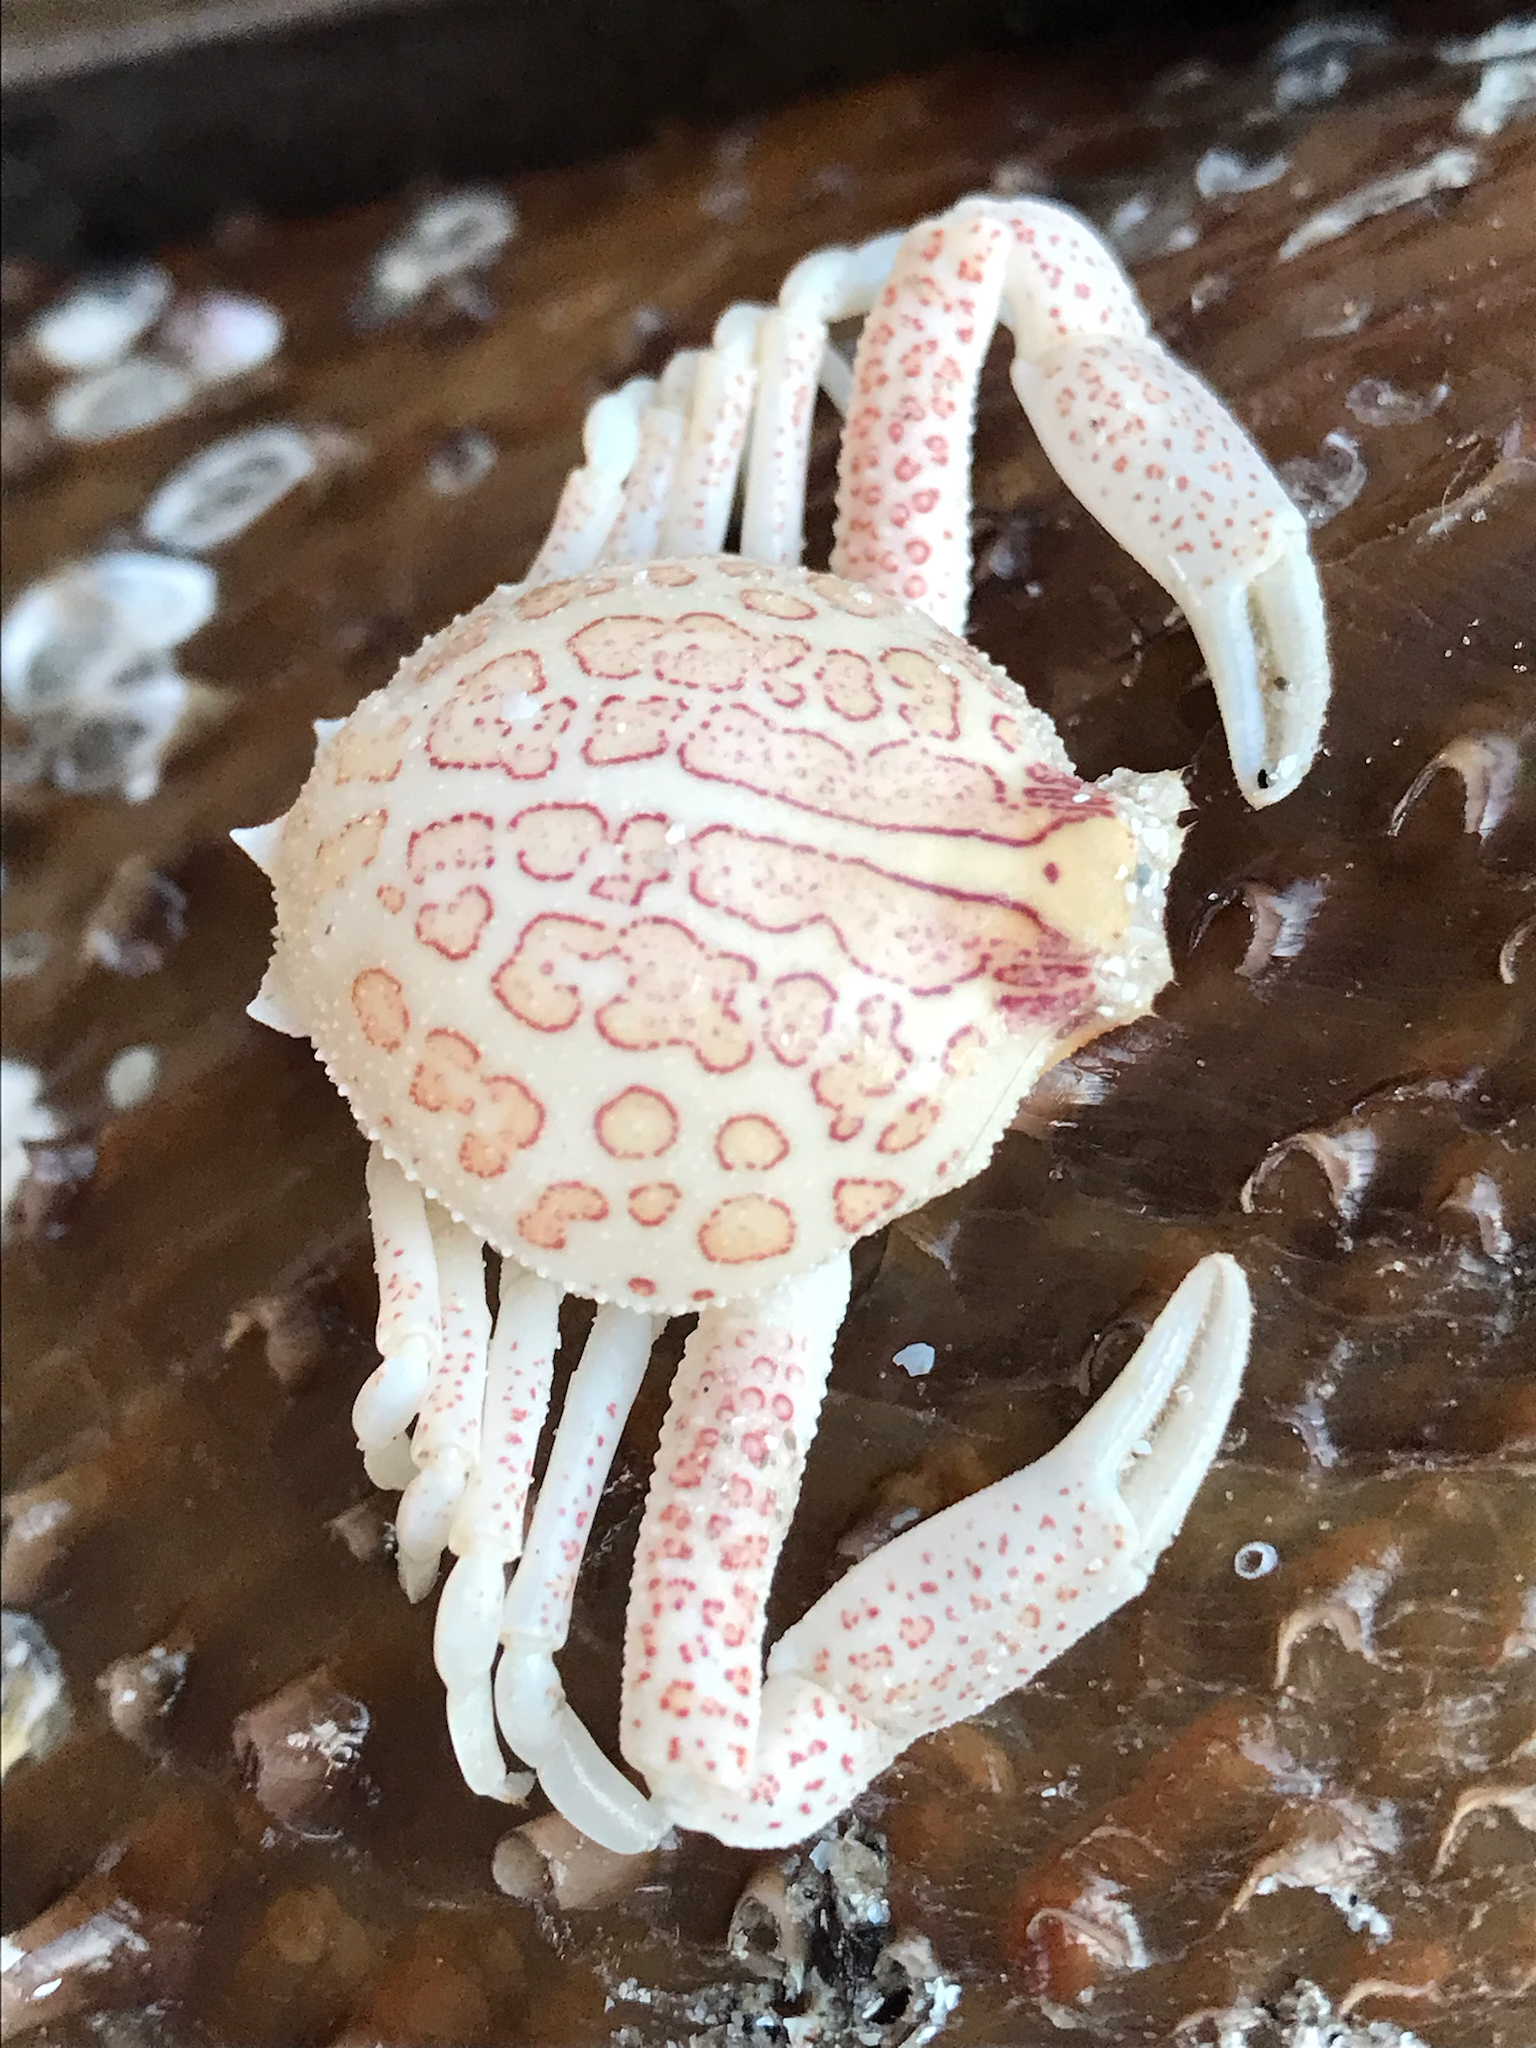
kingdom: Animalia
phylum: Arthropoda
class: Malacostraca
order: Decapoda
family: Leucosiidae
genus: Persephona
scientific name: Persephona mediterranea
